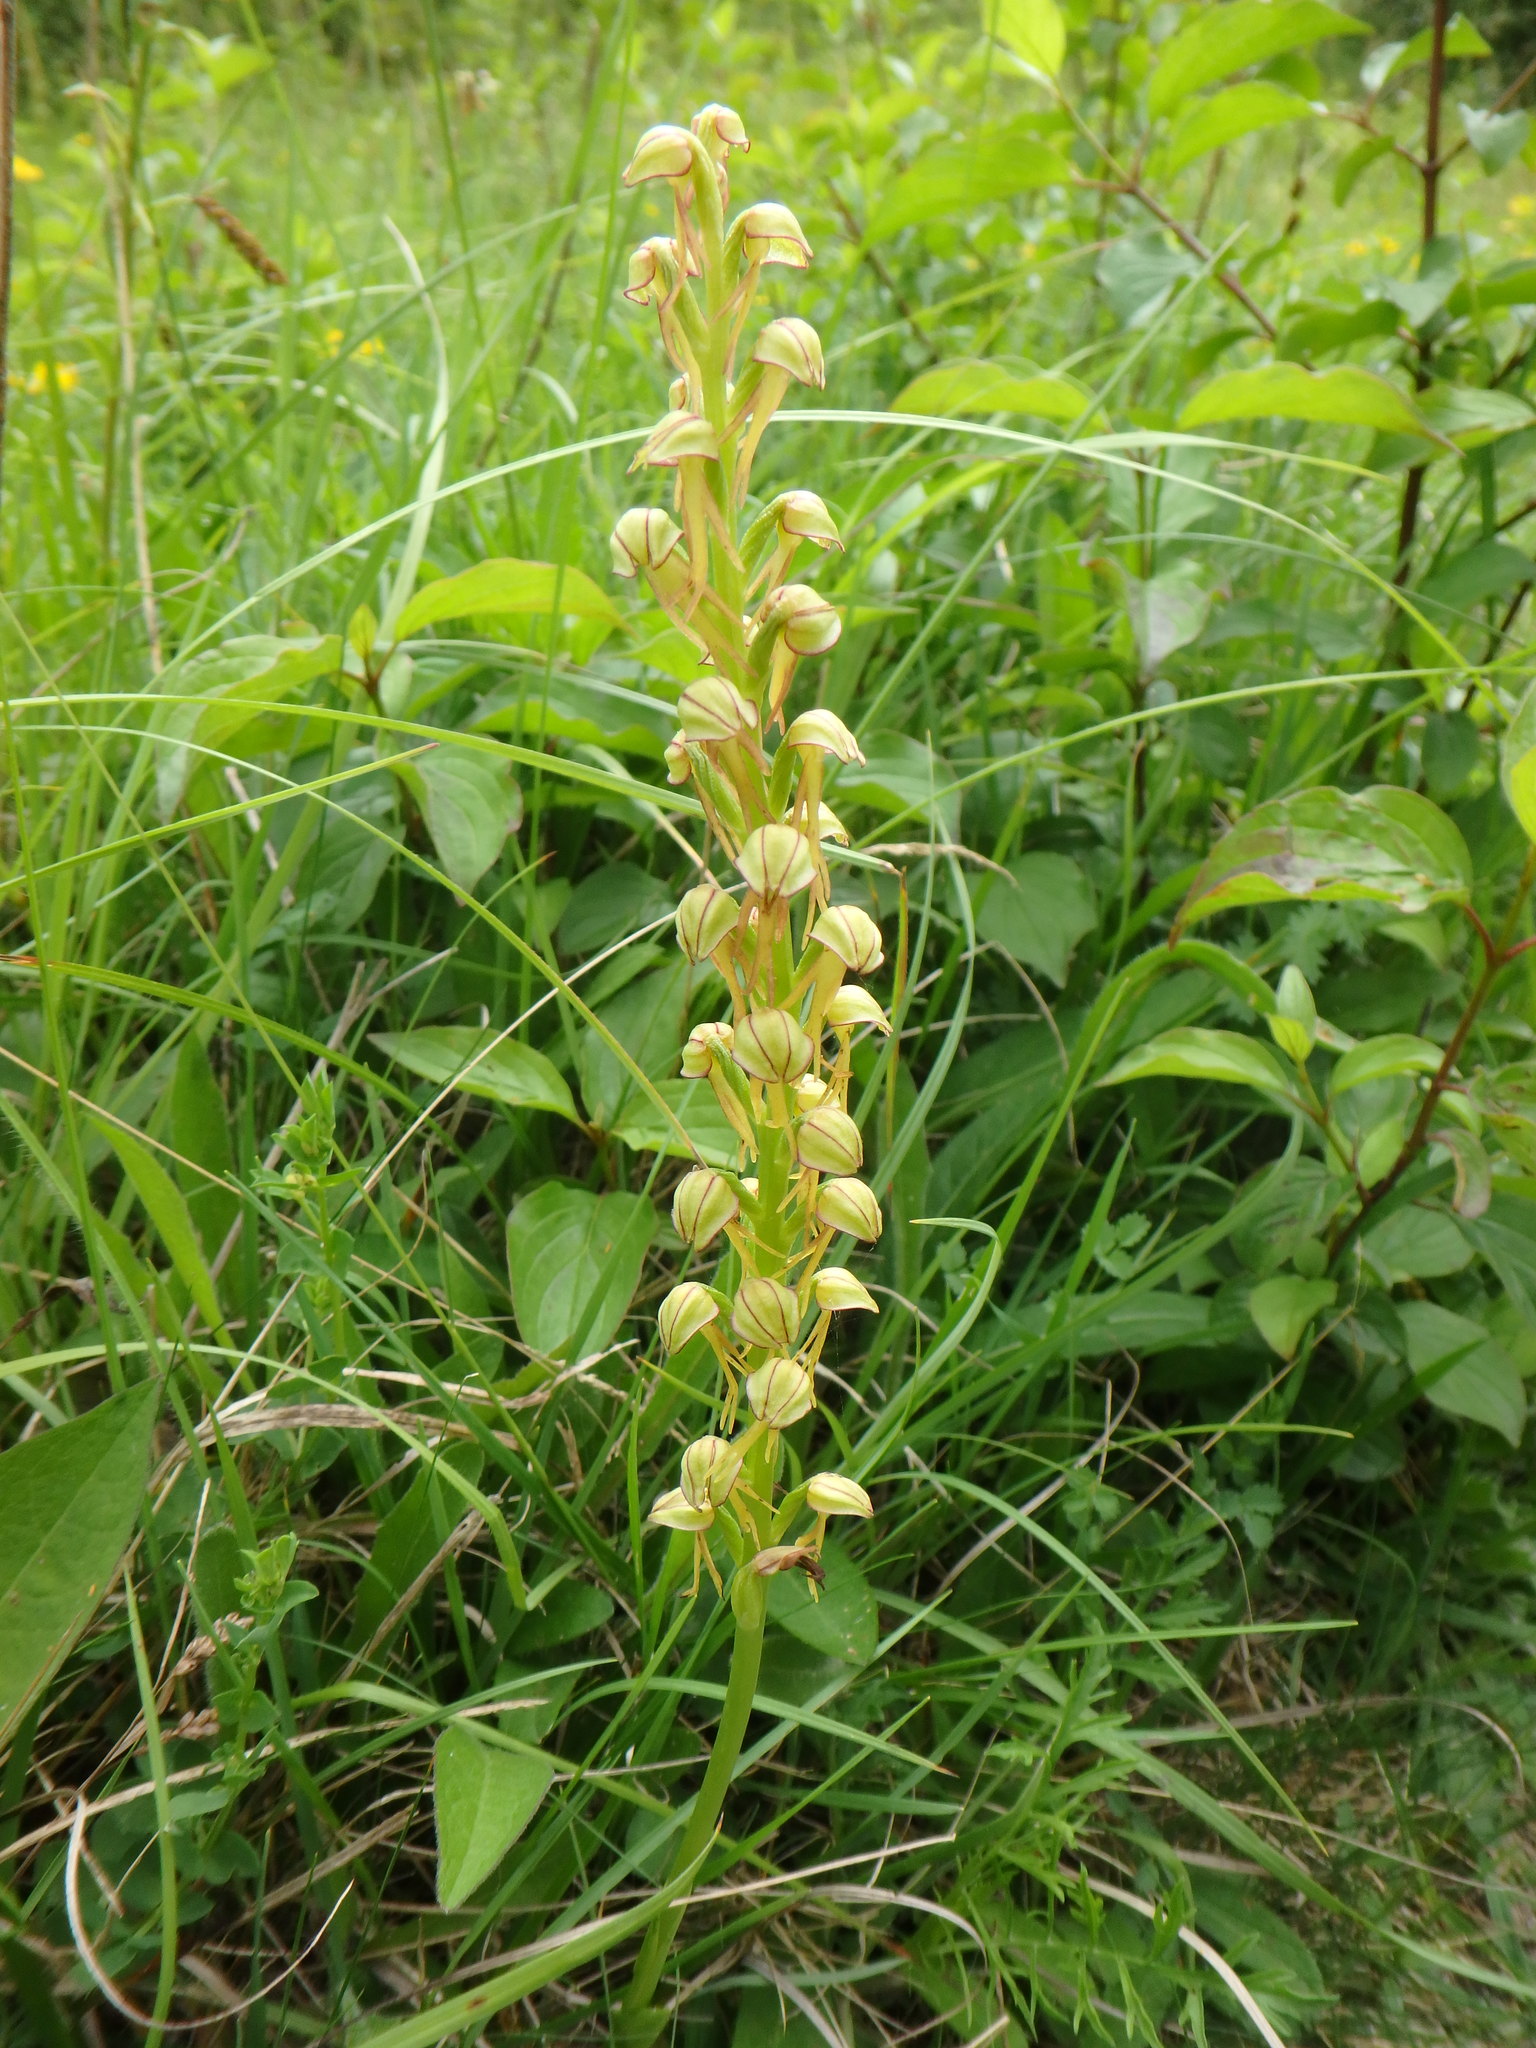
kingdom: Plantae
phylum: Tracheophyta
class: Liliopsida
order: Asparagales
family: Orchidaceae
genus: Orchis
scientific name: Orchis anthropophora
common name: Man orchid
